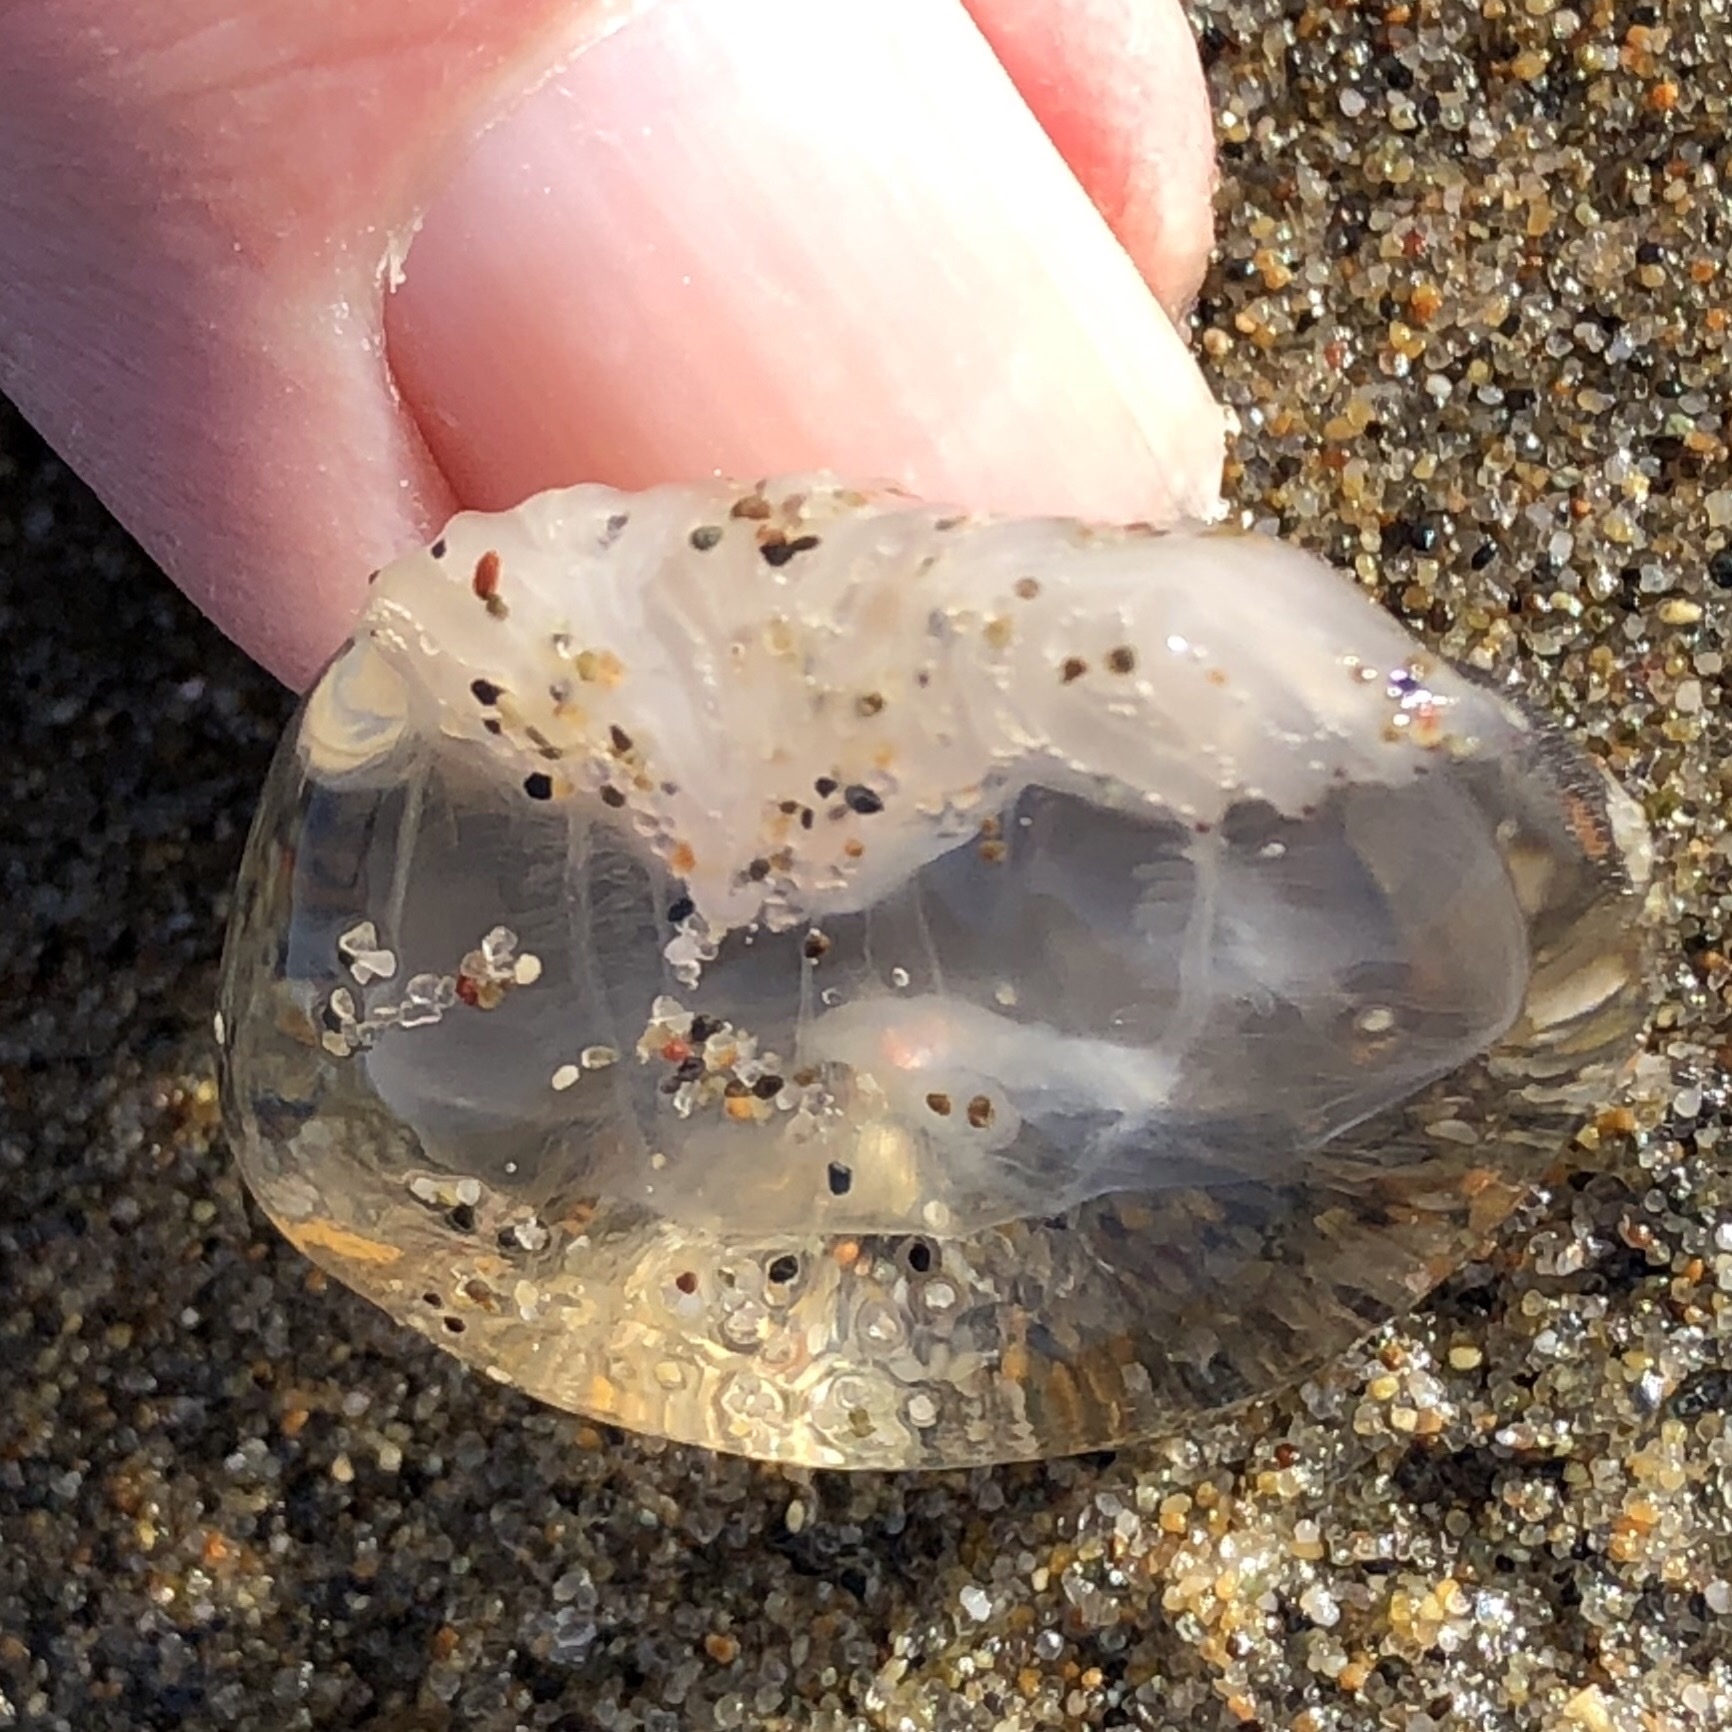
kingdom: Animalia
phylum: Cnidaria
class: Hydrozoa
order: Anthoathecata
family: Corynidae
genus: Polyorchis
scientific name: Polyorchis penicillatus
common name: Penicillate jellyfish
